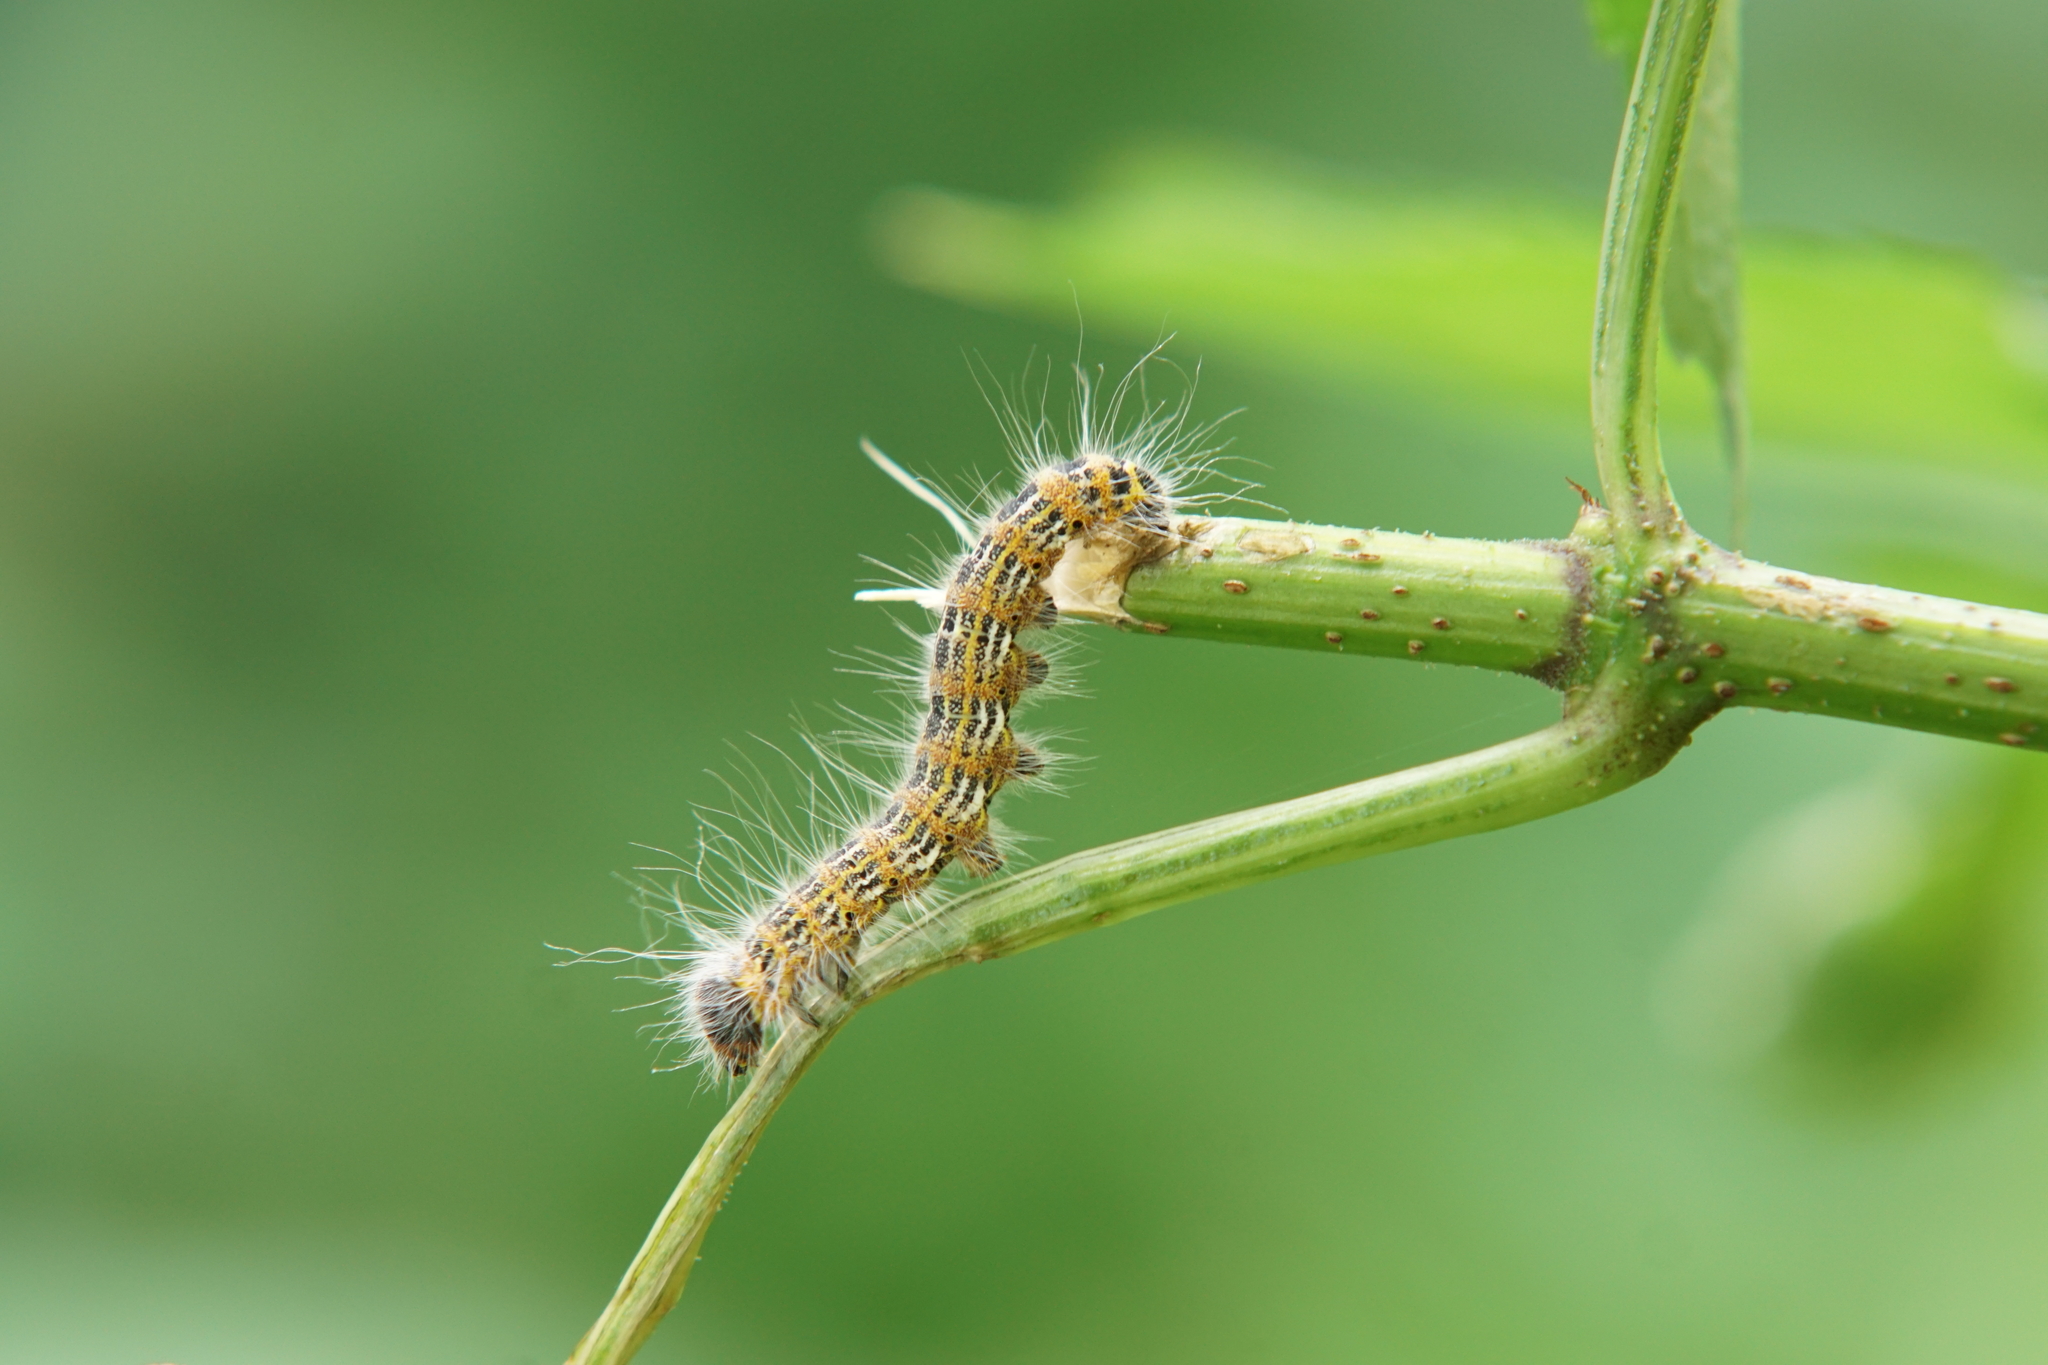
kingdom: Animalia
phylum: Arthropoda
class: Insecta
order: Lepidoptera
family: Notodontidae
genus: Phalera
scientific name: Phalera bucephala
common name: Buff-tip
